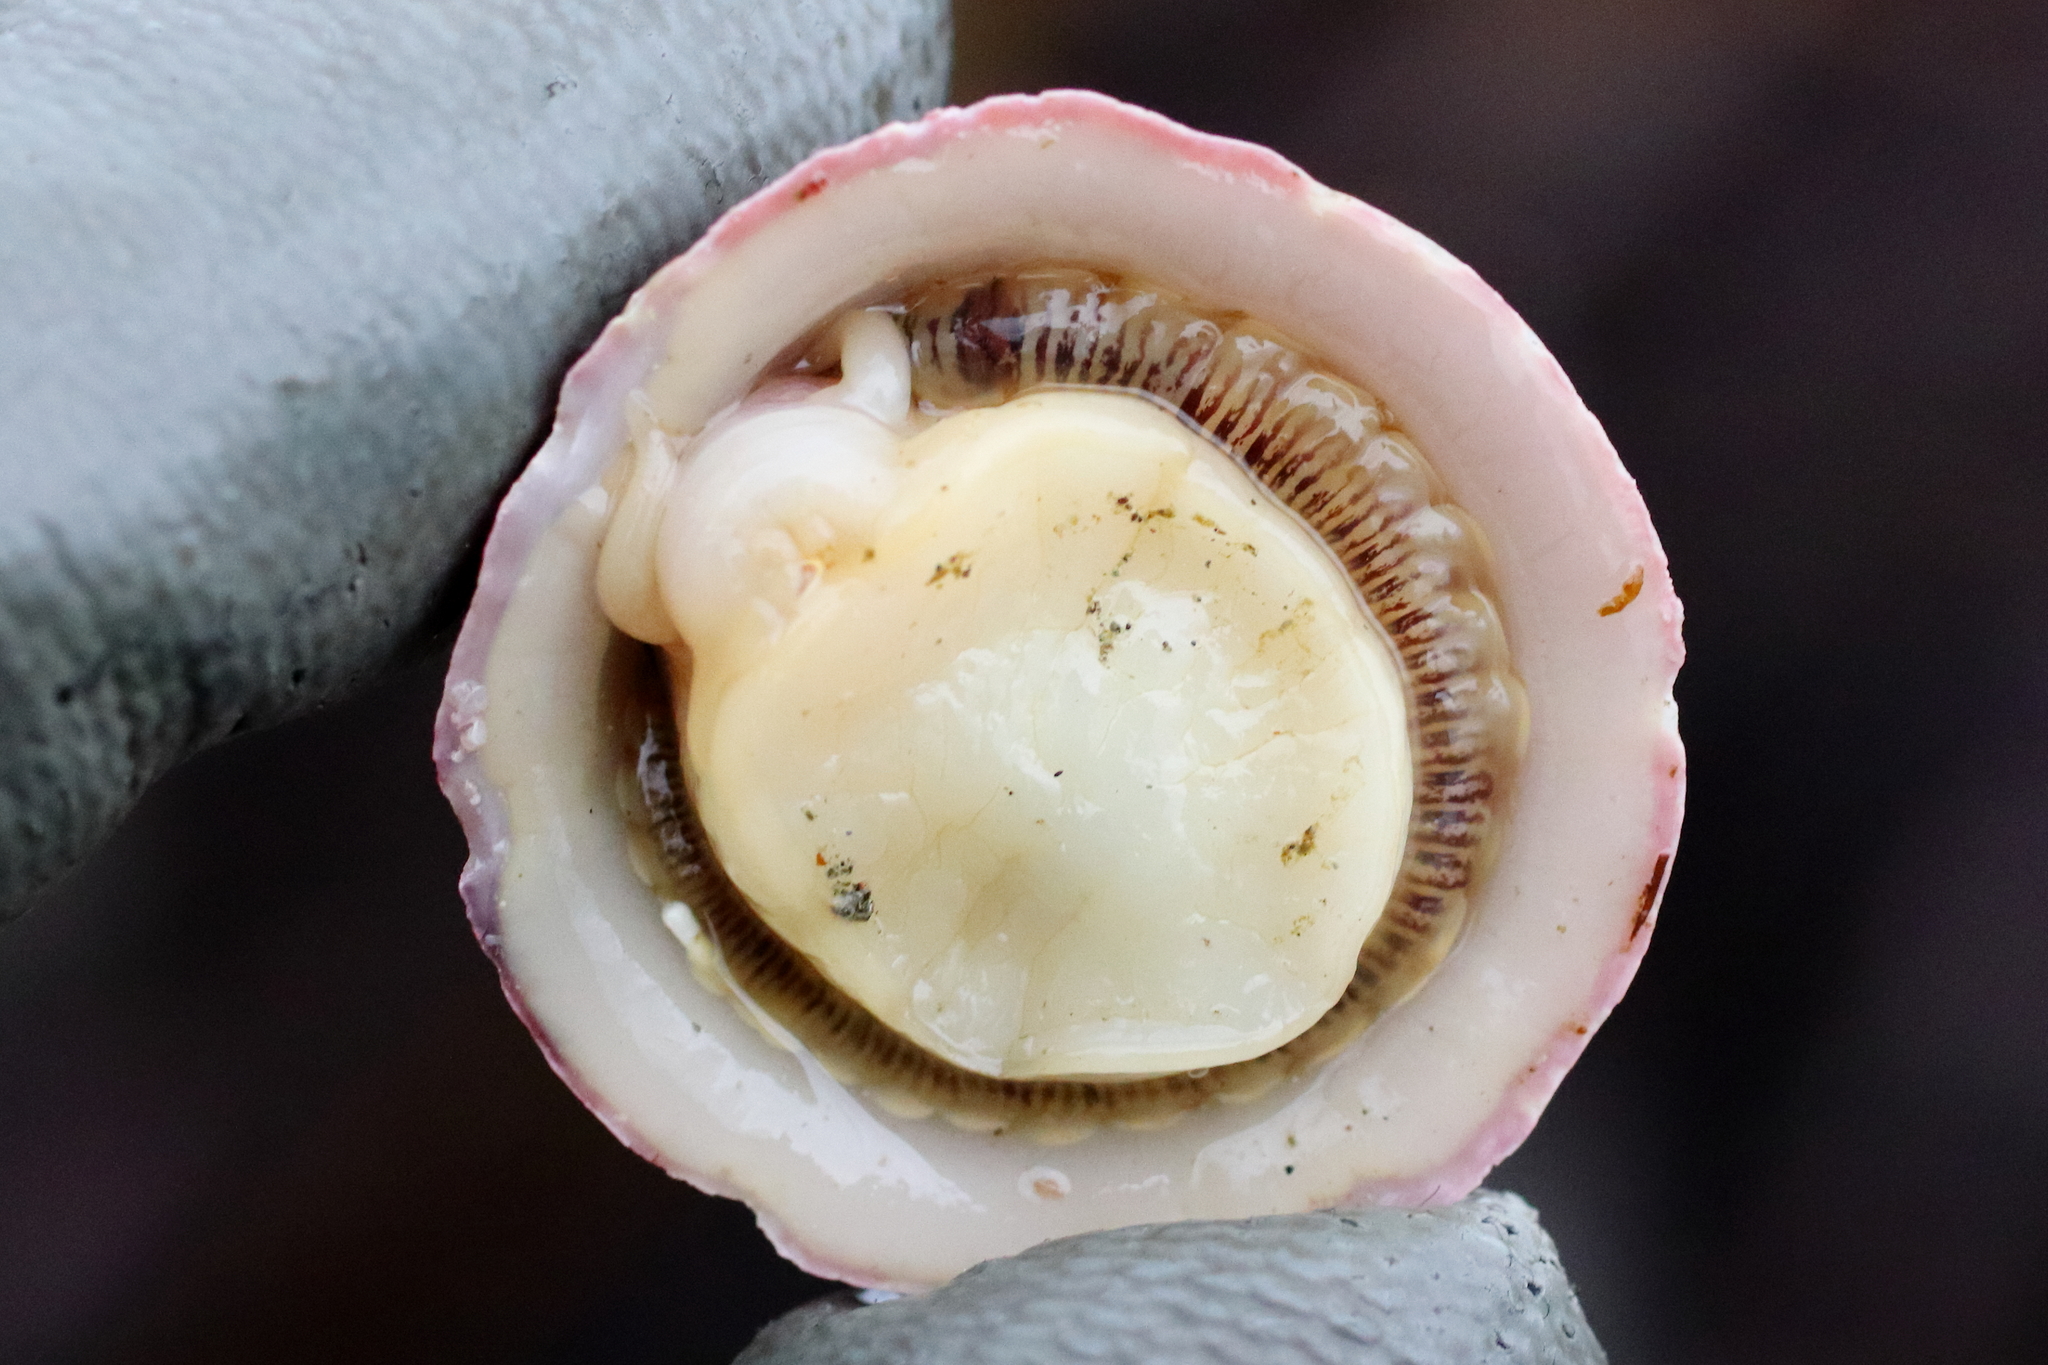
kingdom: Animalia
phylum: Annelida
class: Polychaeta
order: Phyllodocida
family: Polynoidae
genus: Arctonoe
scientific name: Arctonoe vittata
